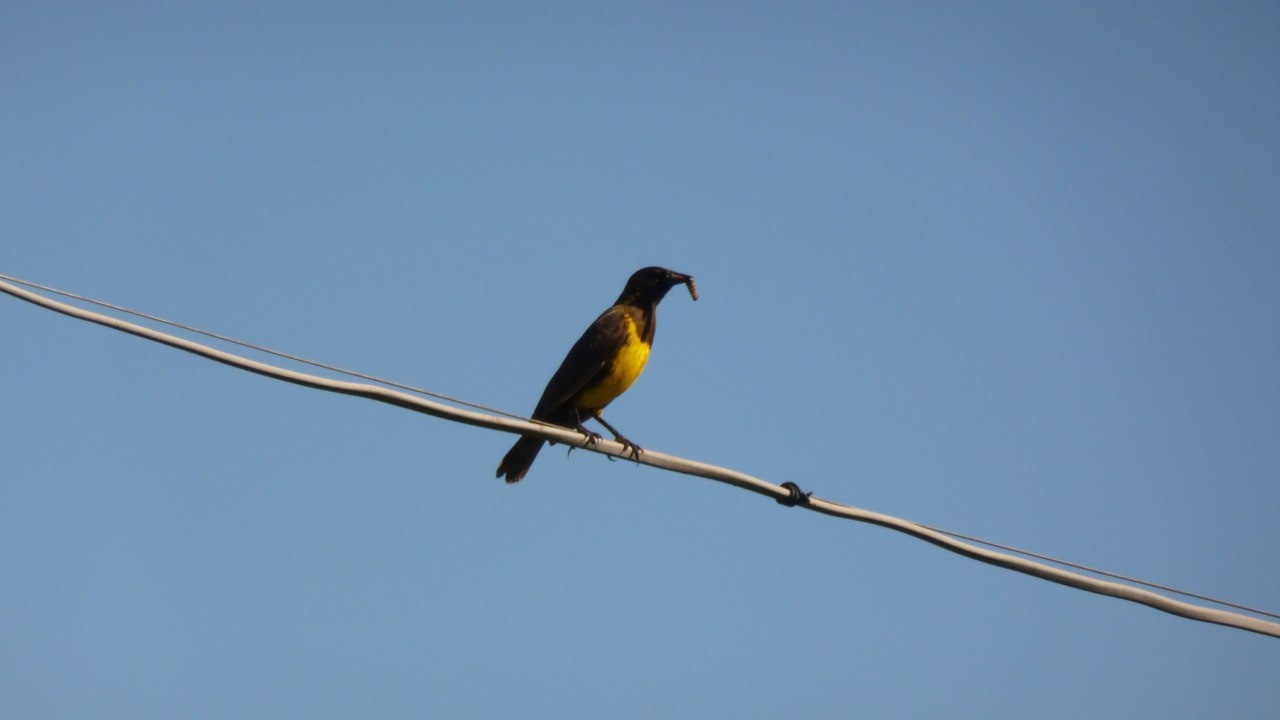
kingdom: Animalia
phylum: Chordata
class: Aves
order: Passeriformes
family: Icteridae
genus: Pseudoleistes
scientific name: Pseudoleistes virescens
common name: Brown-and-yellow marshbird
